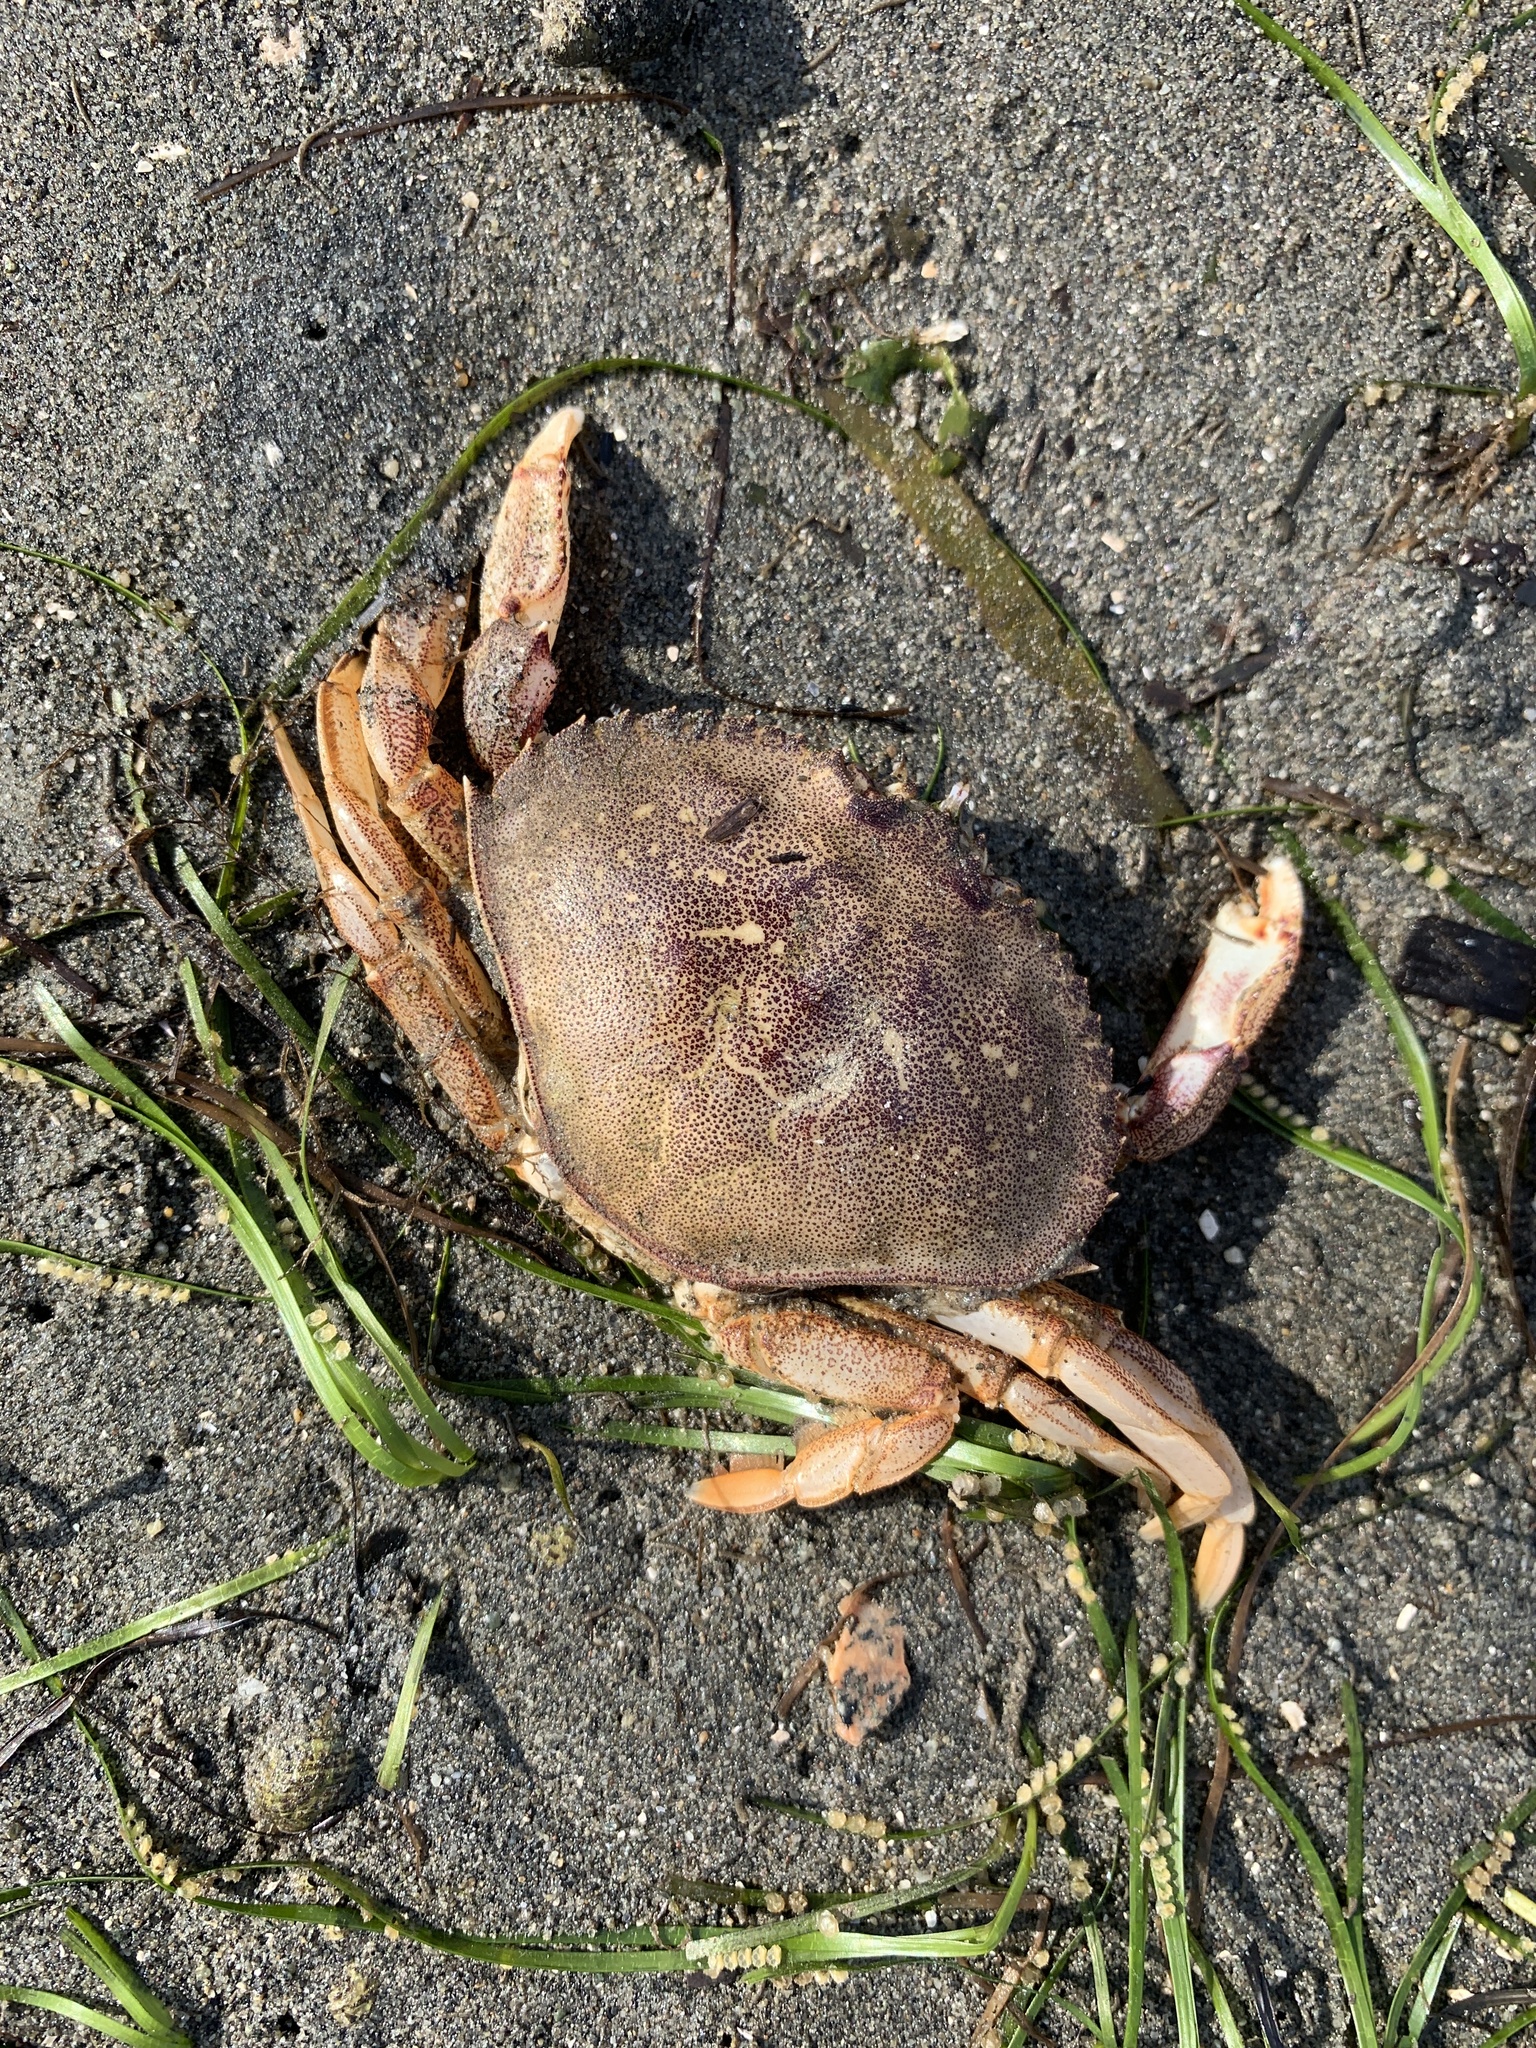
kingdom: Animalia
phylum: Arthropoda
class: Malacostraca
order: Decapoda
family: Cancridae
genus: Metacarcinus
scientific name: Metacarcinus magister
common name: Californian crab
